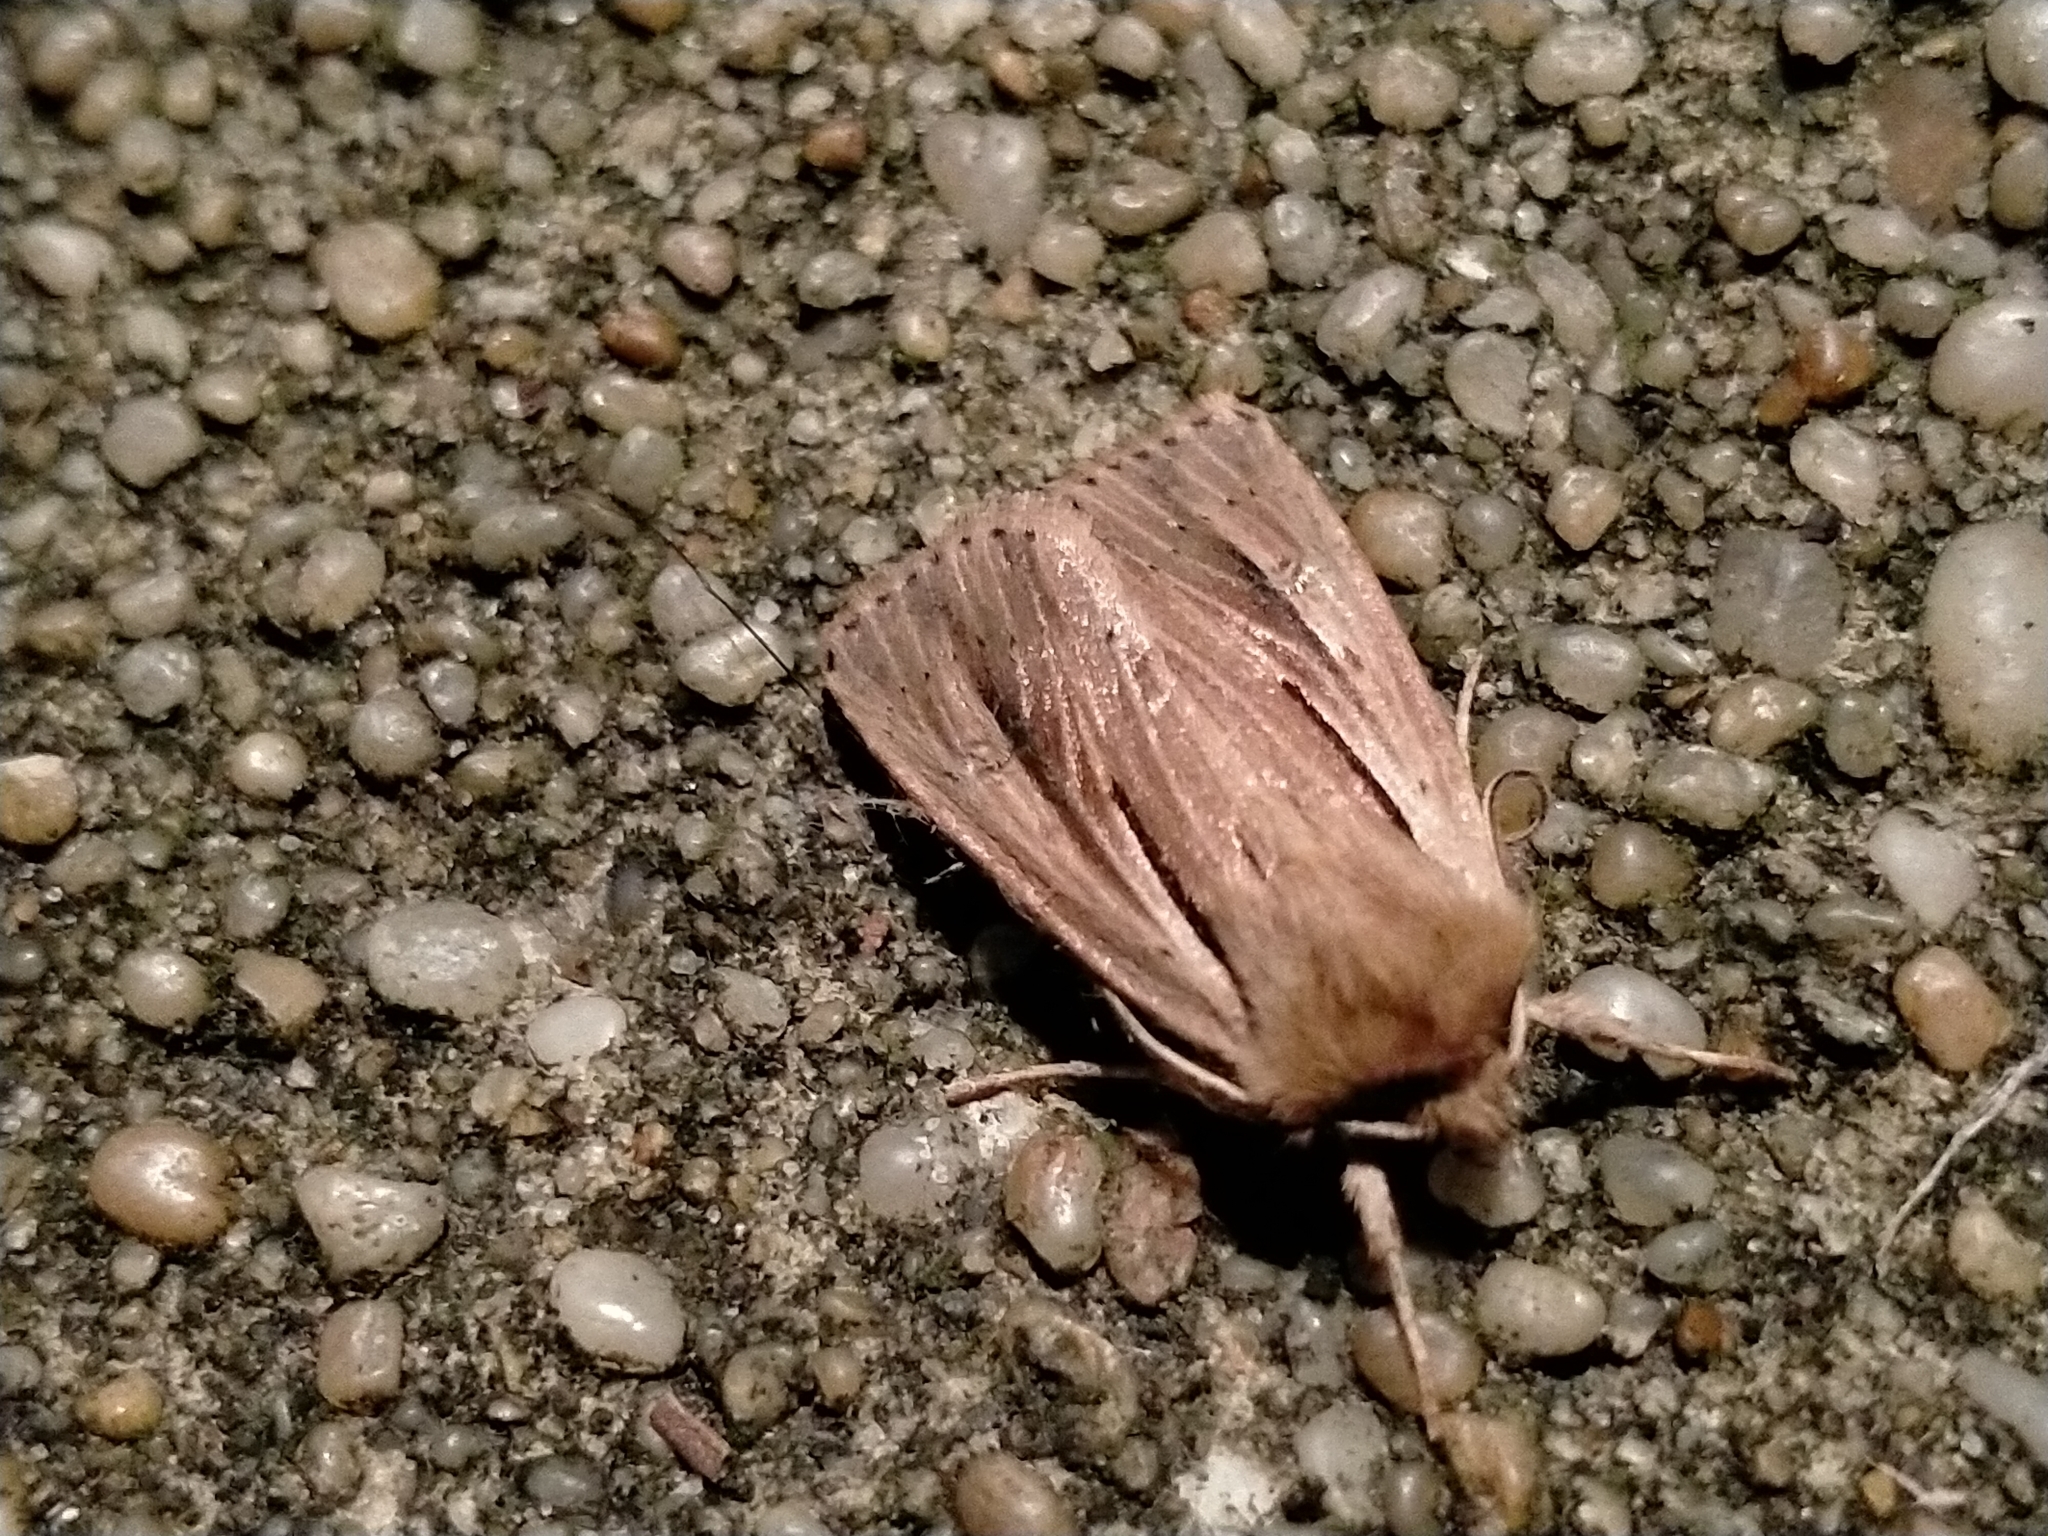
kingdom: Animalia
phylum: Arthropoda
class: Insecta
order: Lepidoptera
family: Noctuidae
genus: Ichneutica
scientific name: Ichneutica propria
